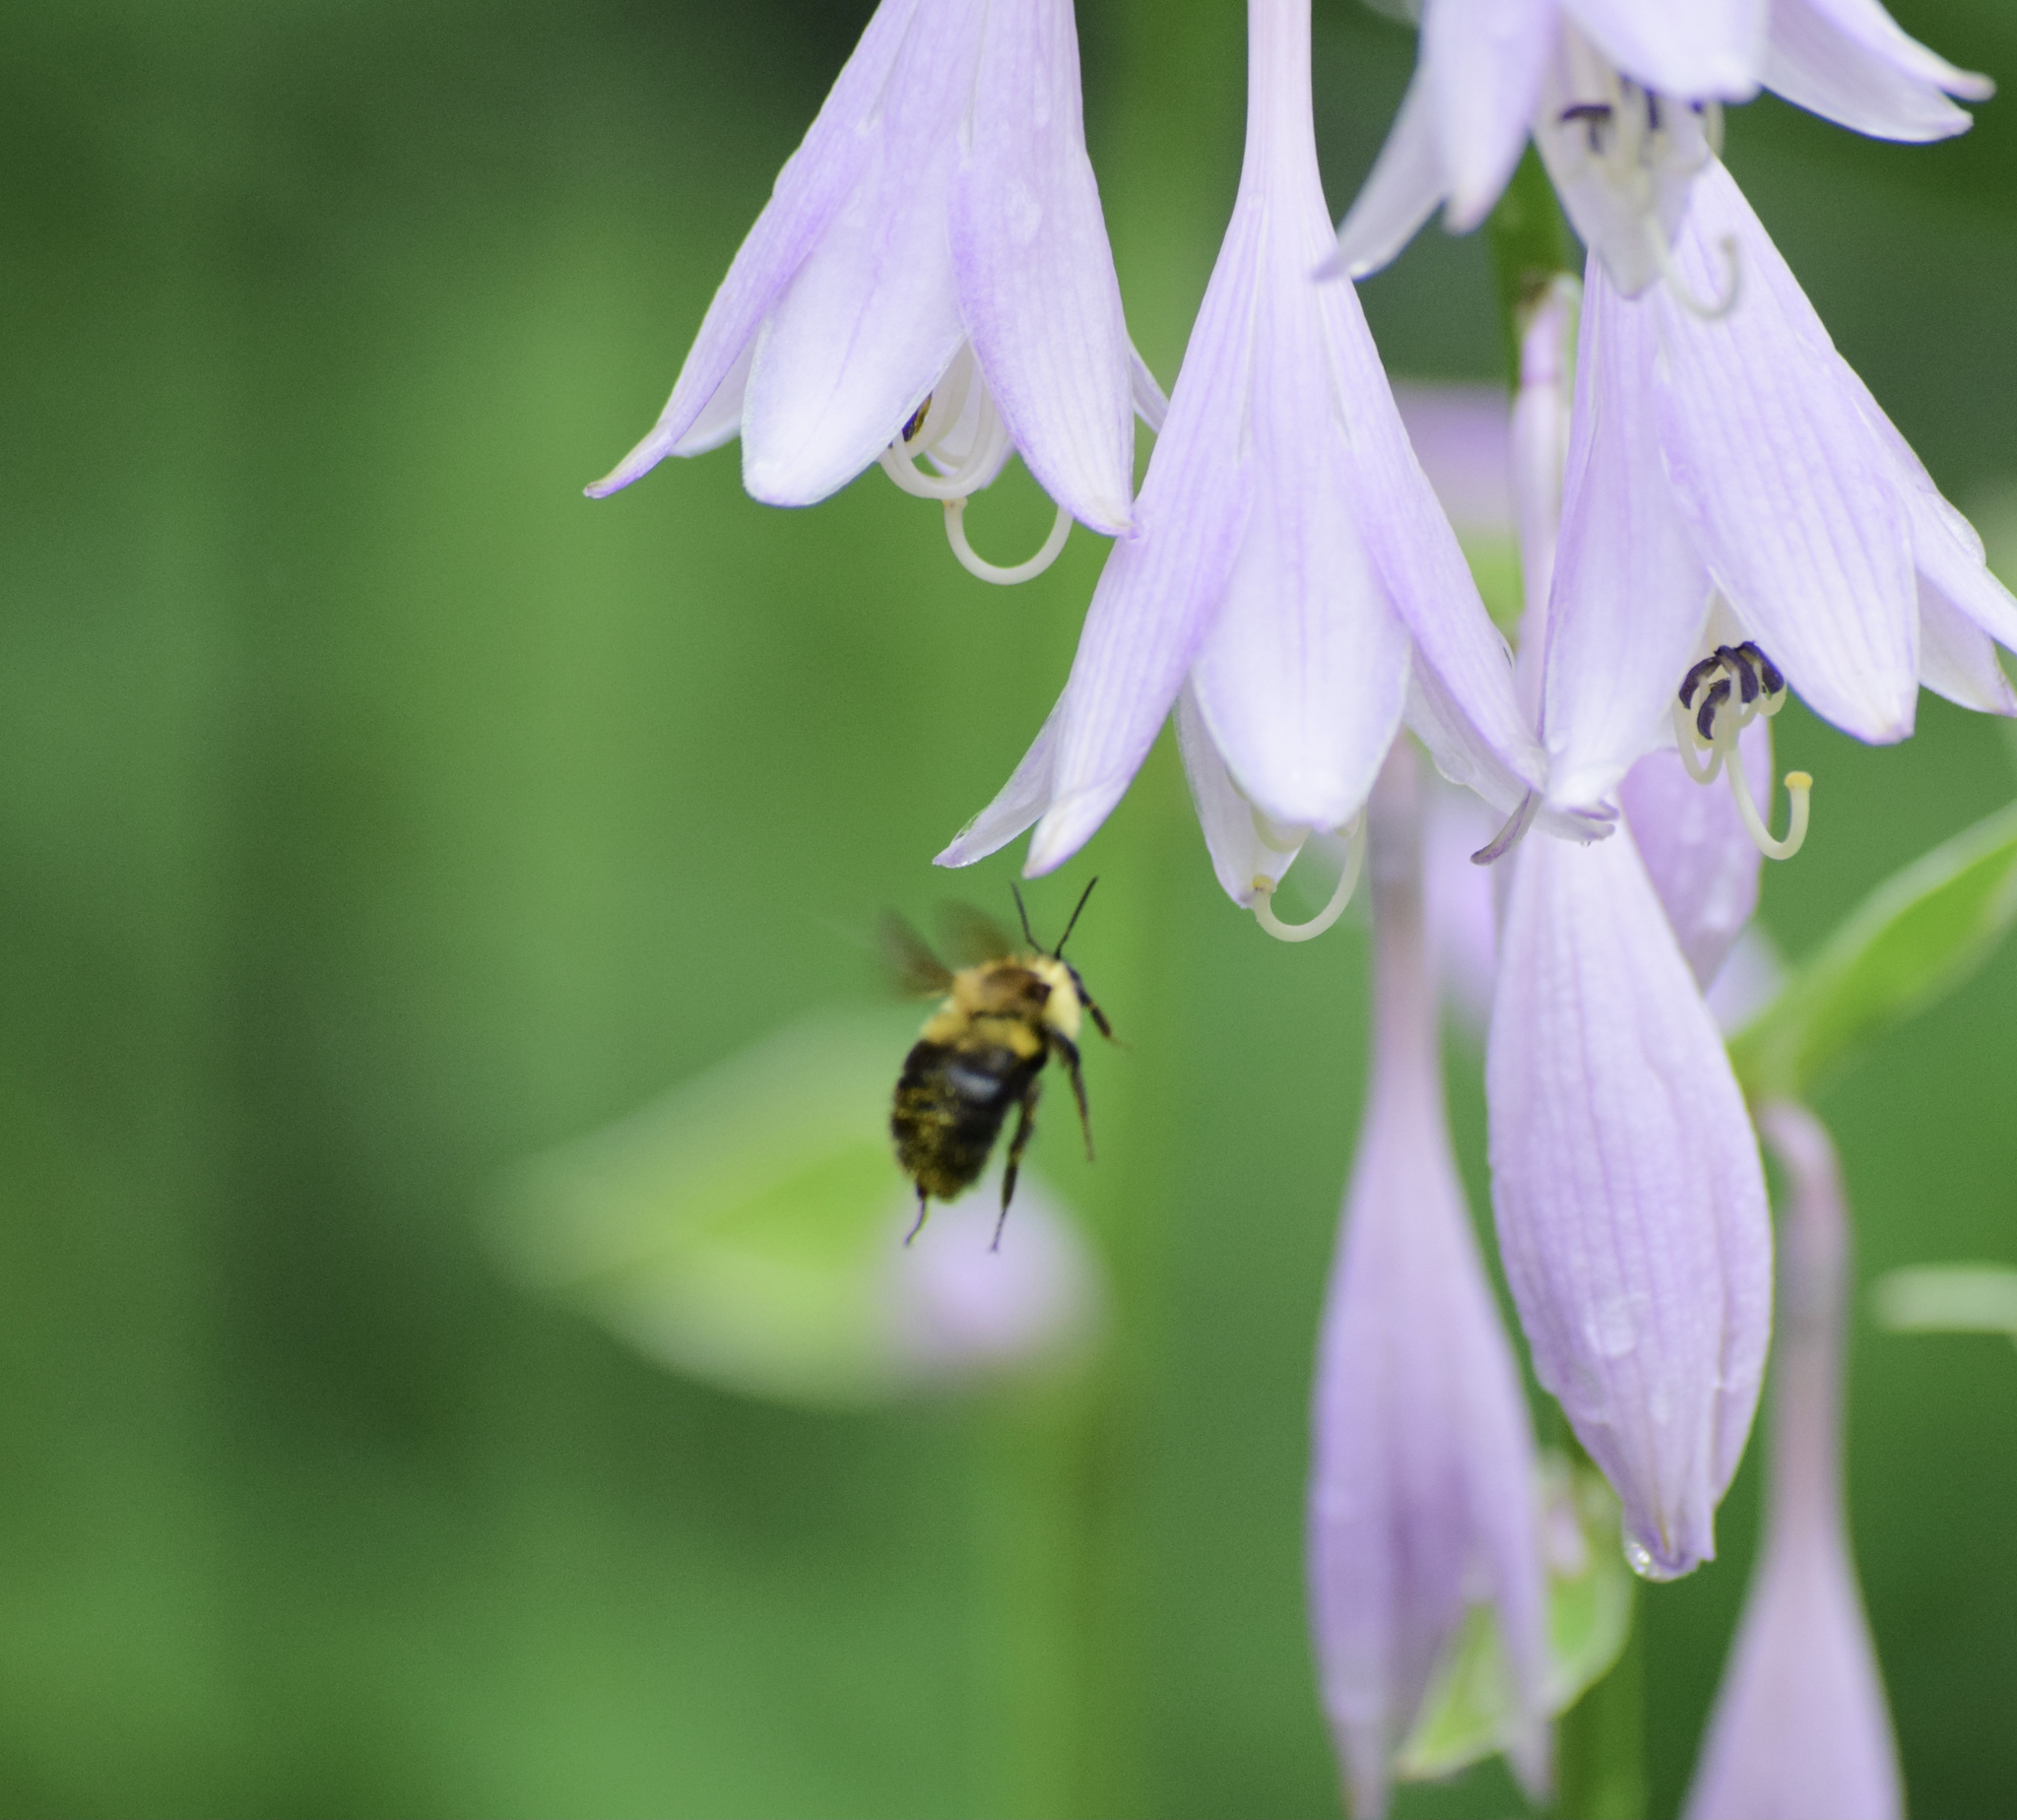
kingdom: Animalia
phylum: Arthropoda
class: Insecta
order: Hymenoptera
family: Apidae
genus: Bombus
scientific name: Bombus bimaculatus
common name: Two-spotted bumble bee
